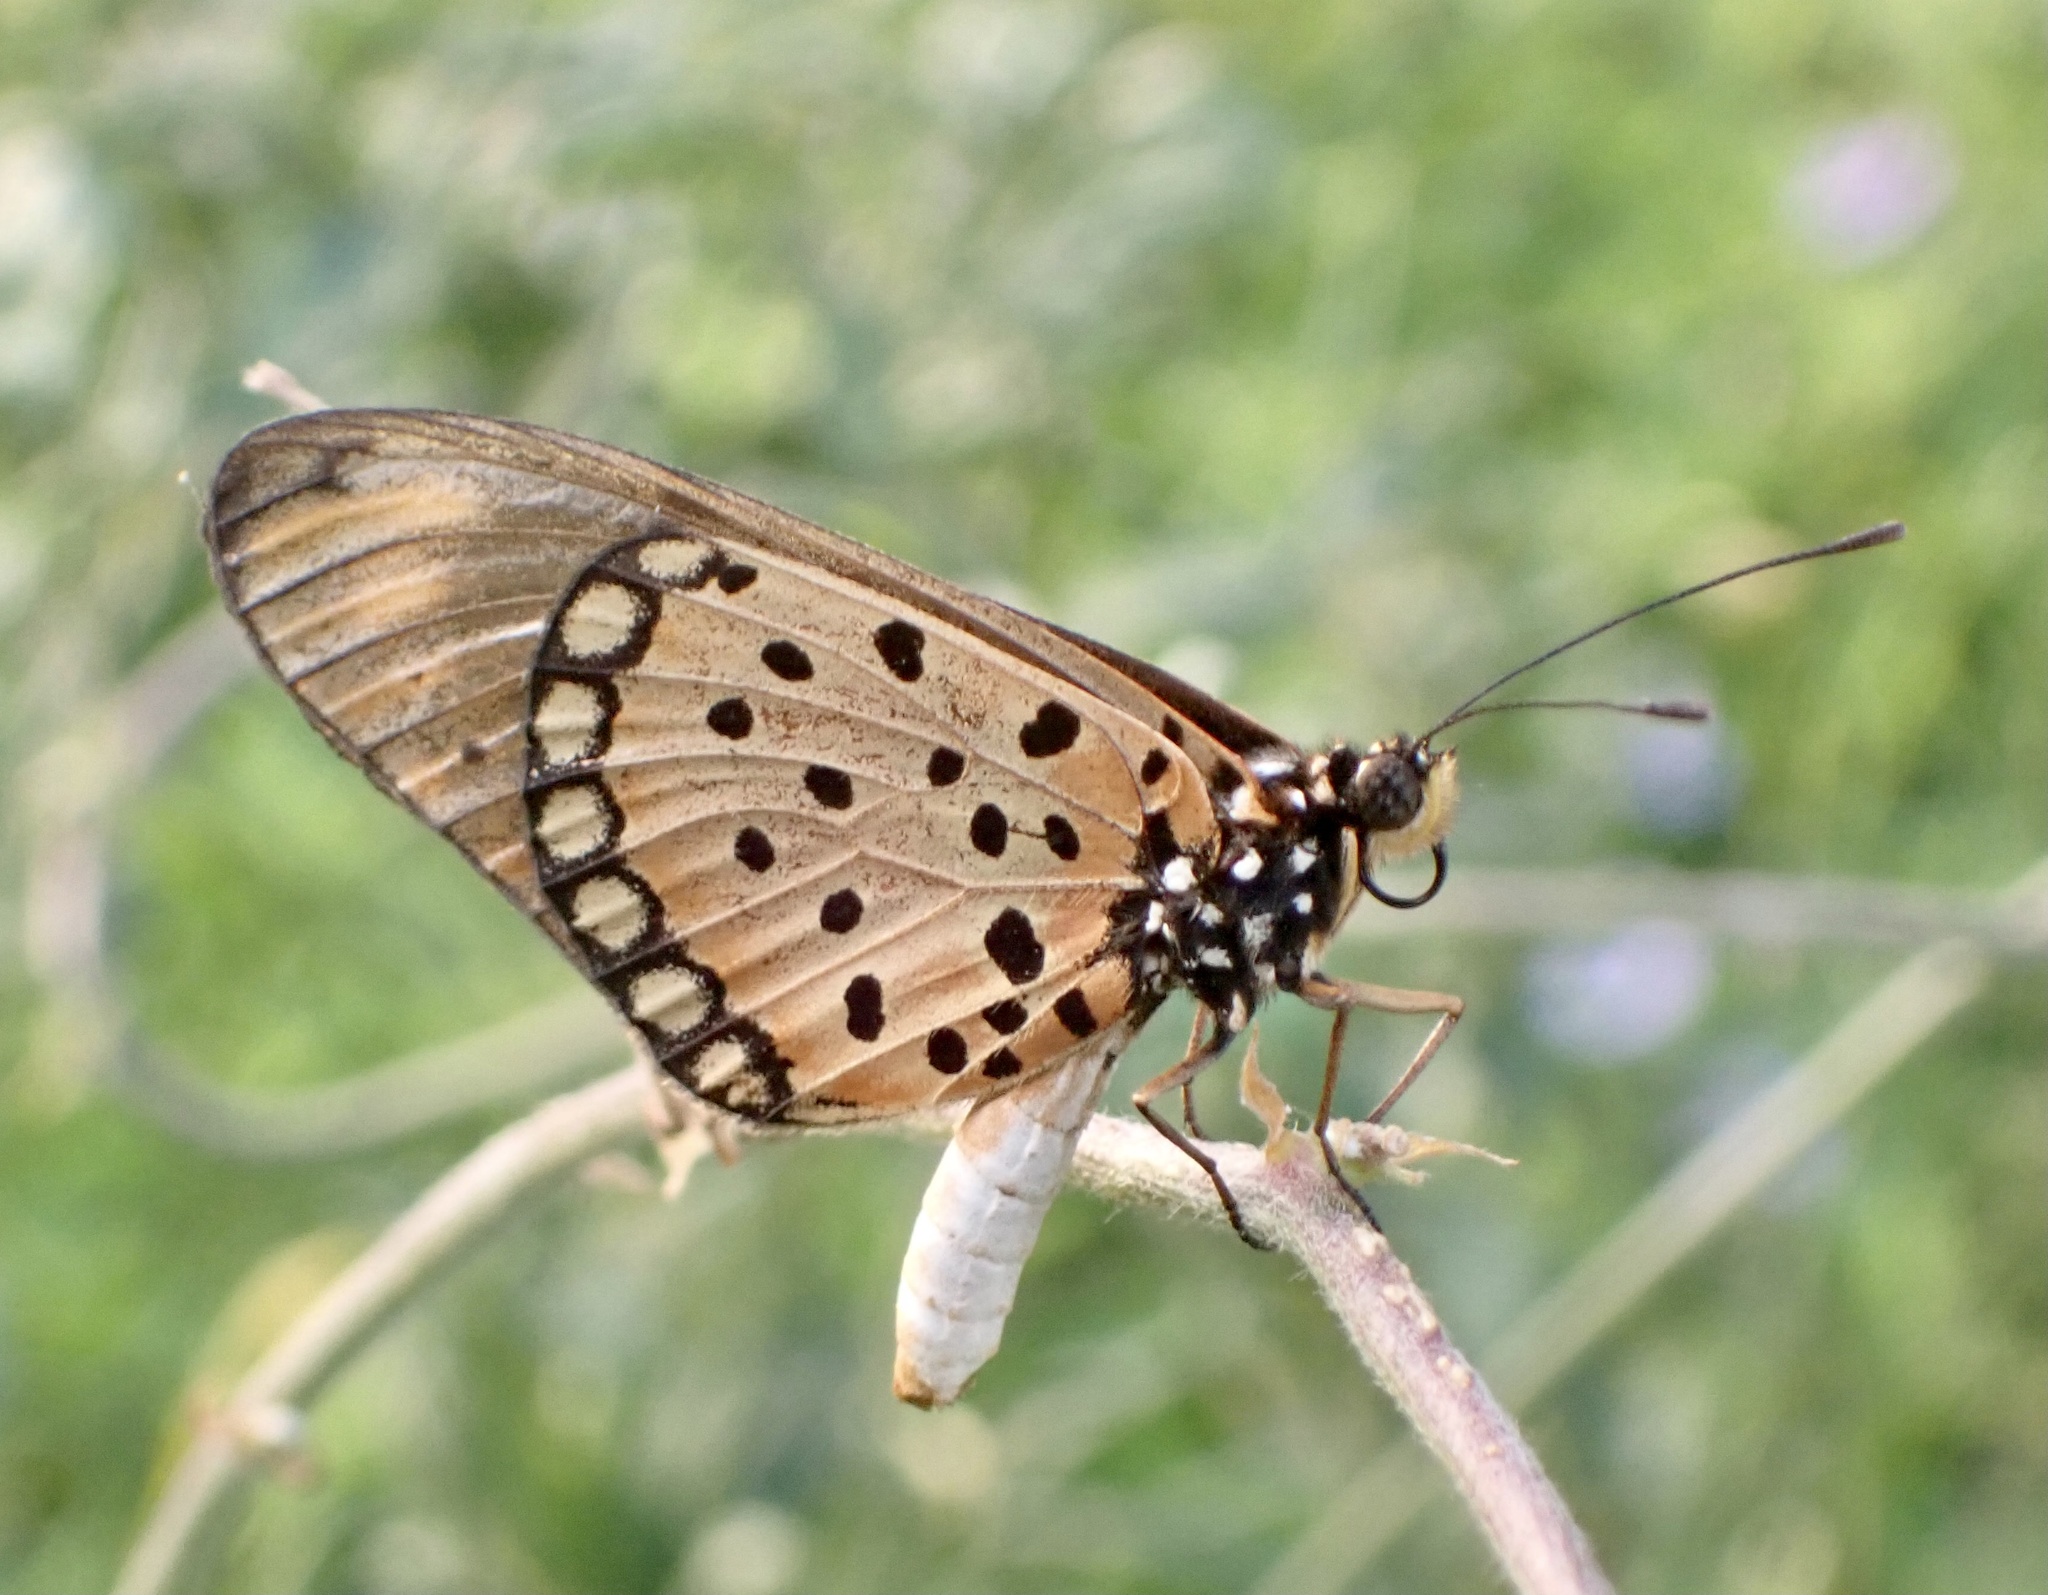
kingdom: Animalia
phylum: Arthropoda
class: Insecta
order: Lepidoptera
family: Nymphalidae
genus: Stephenia
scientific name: Stephenia
